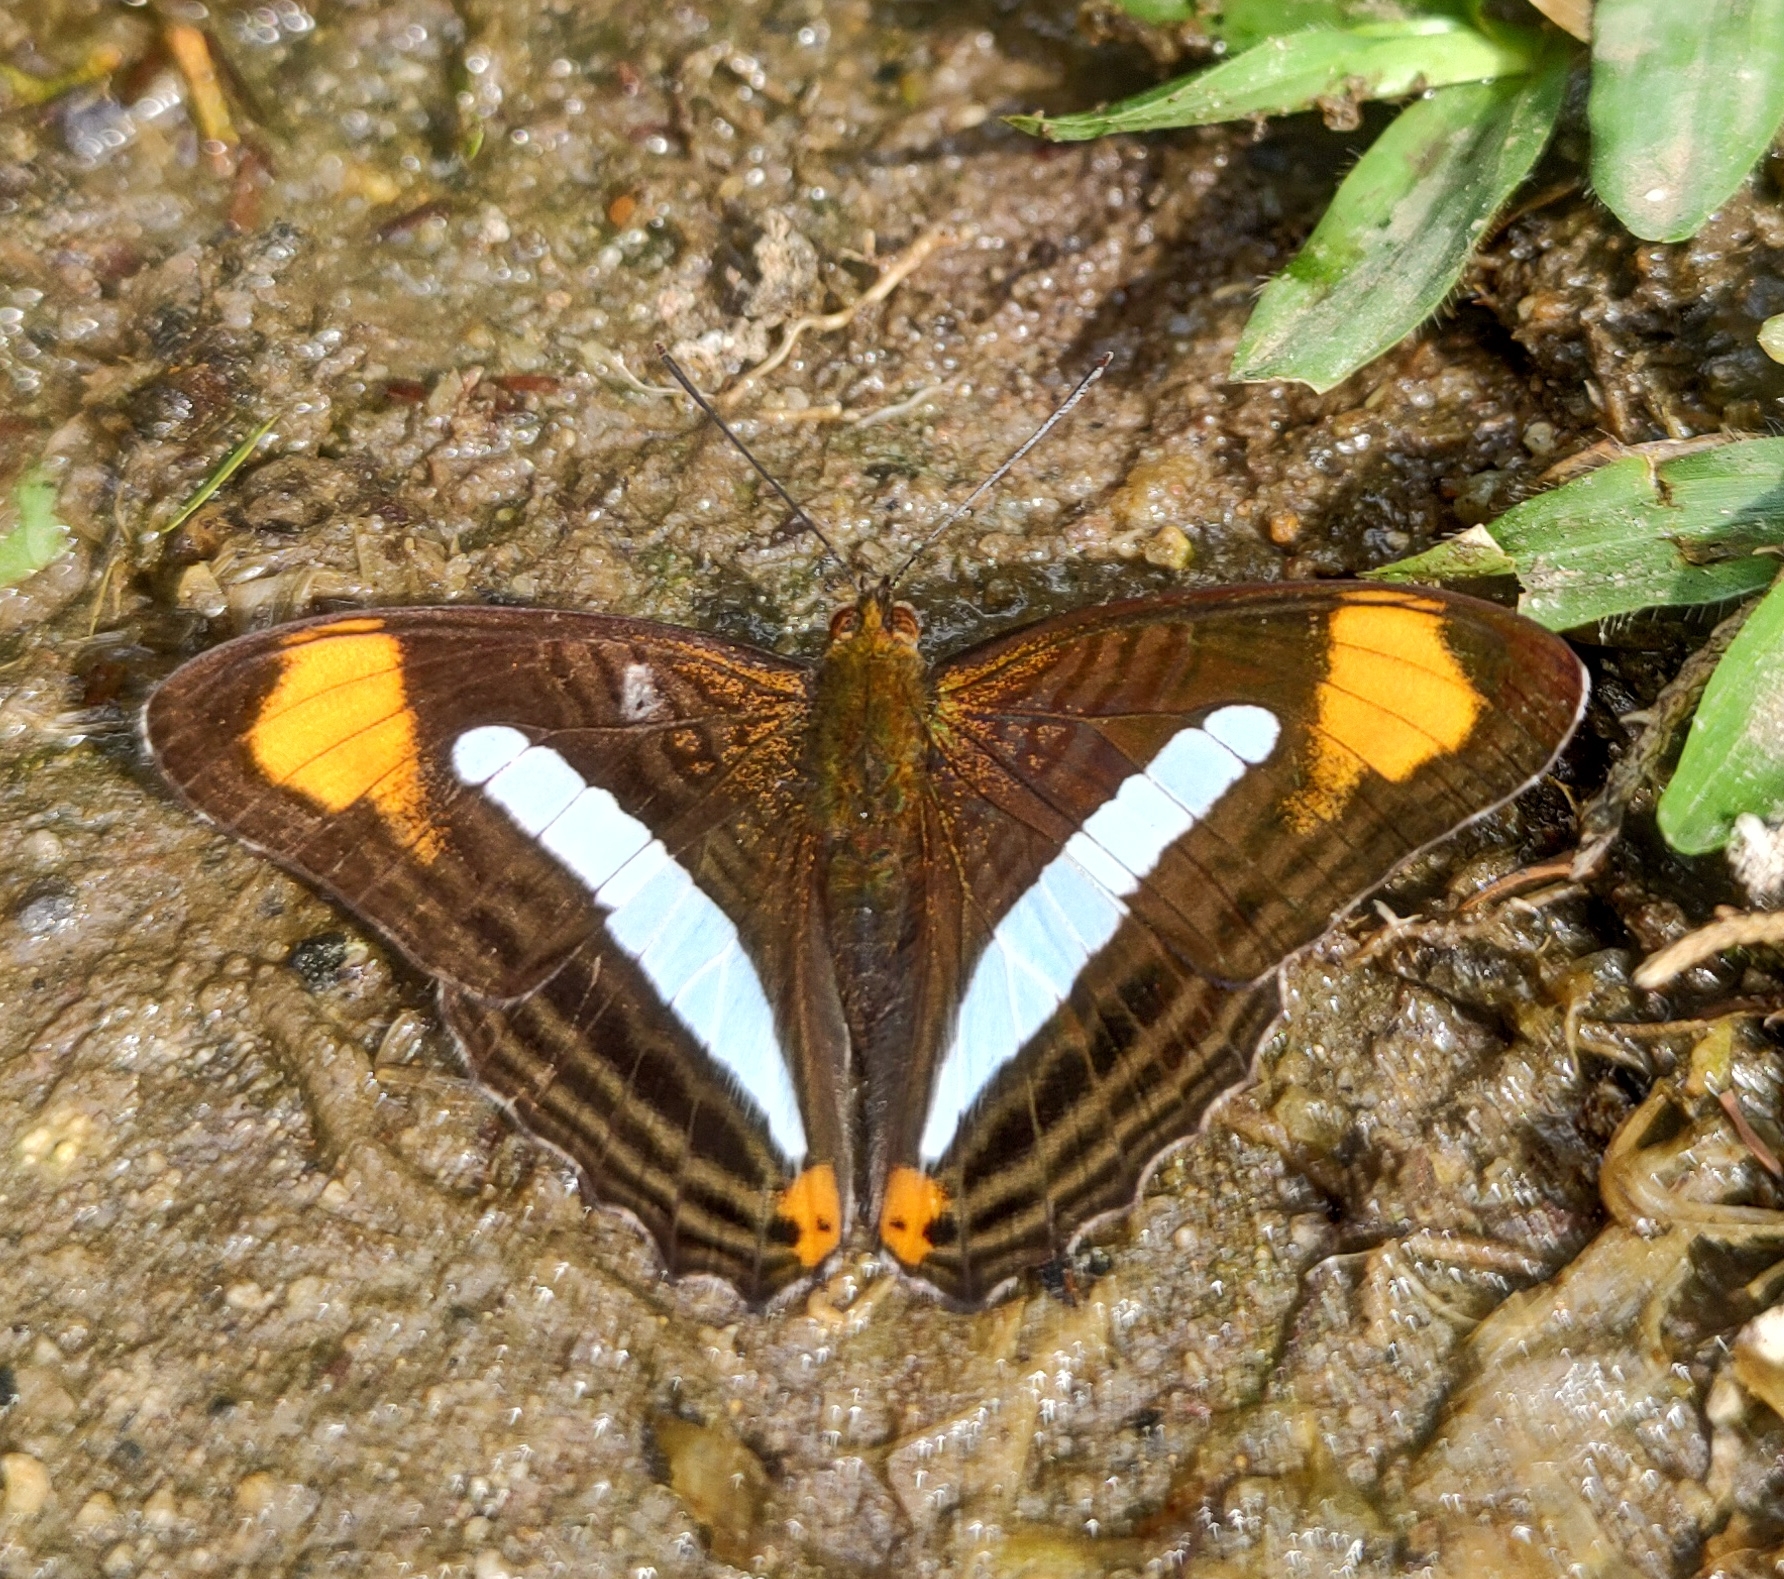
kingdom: Animalia
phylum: Arthropoda
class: Insecta
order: Lepidoptera
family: Nymphalidae
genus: Limenitis
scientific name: Limenitis epizygis
